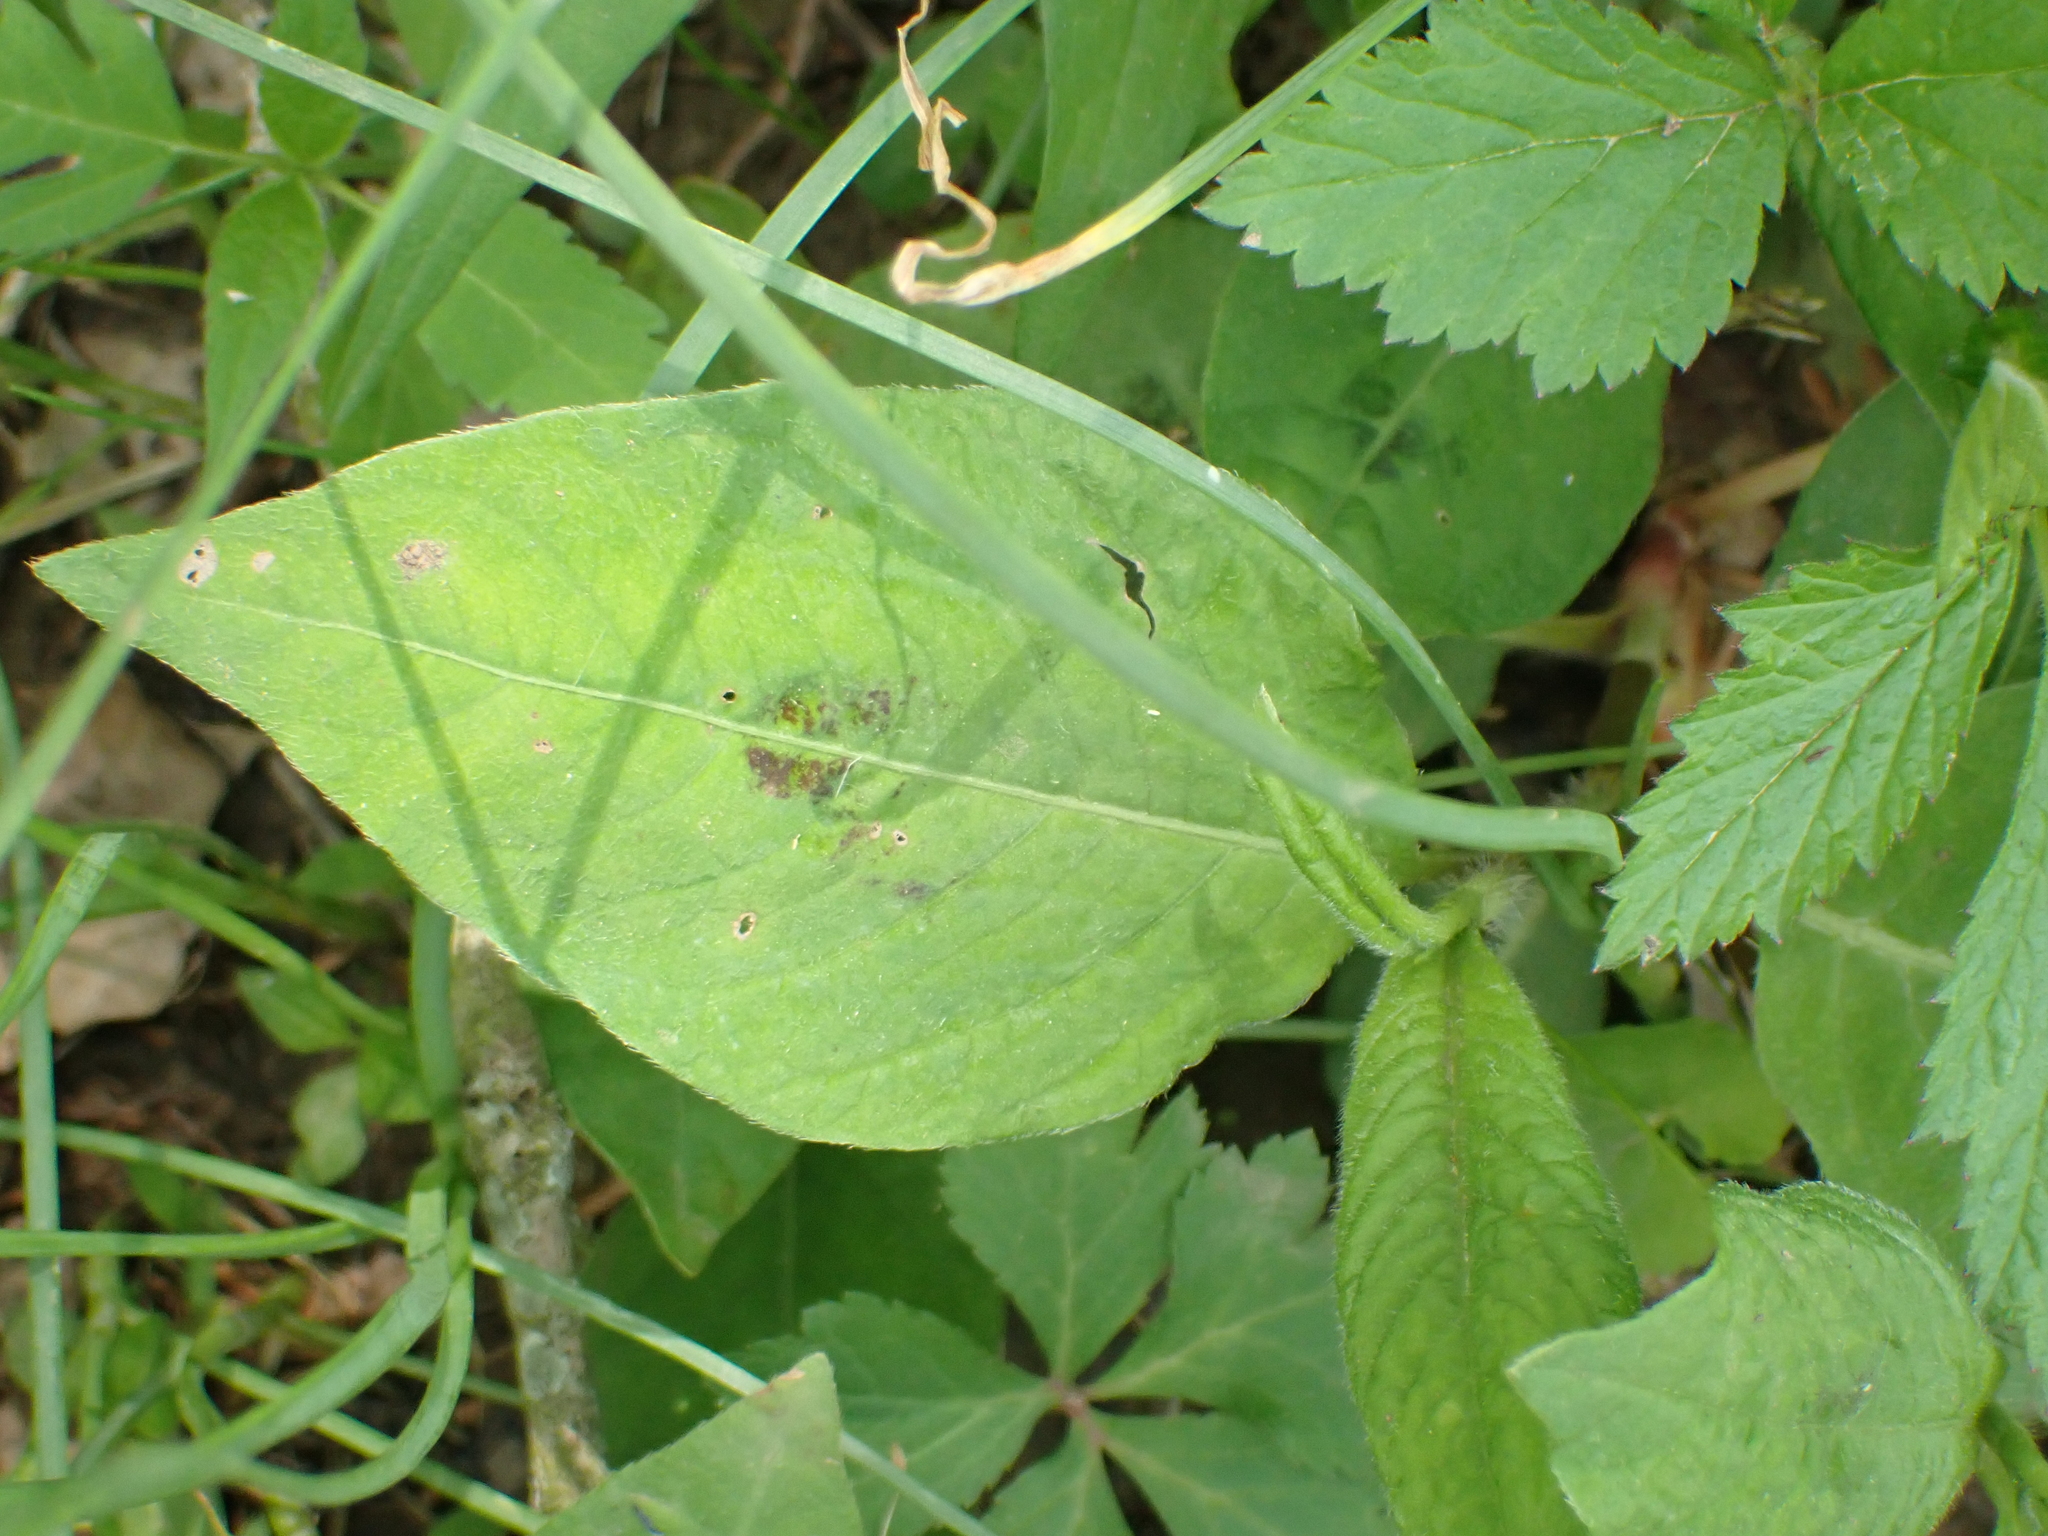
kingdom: Plantae
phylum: Tracheophyta
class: Magnoliopsida
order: Caryophyllales
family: Polygonaceae
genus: Persicaria
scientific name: Persicaria virginiana
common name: Jumpseed
